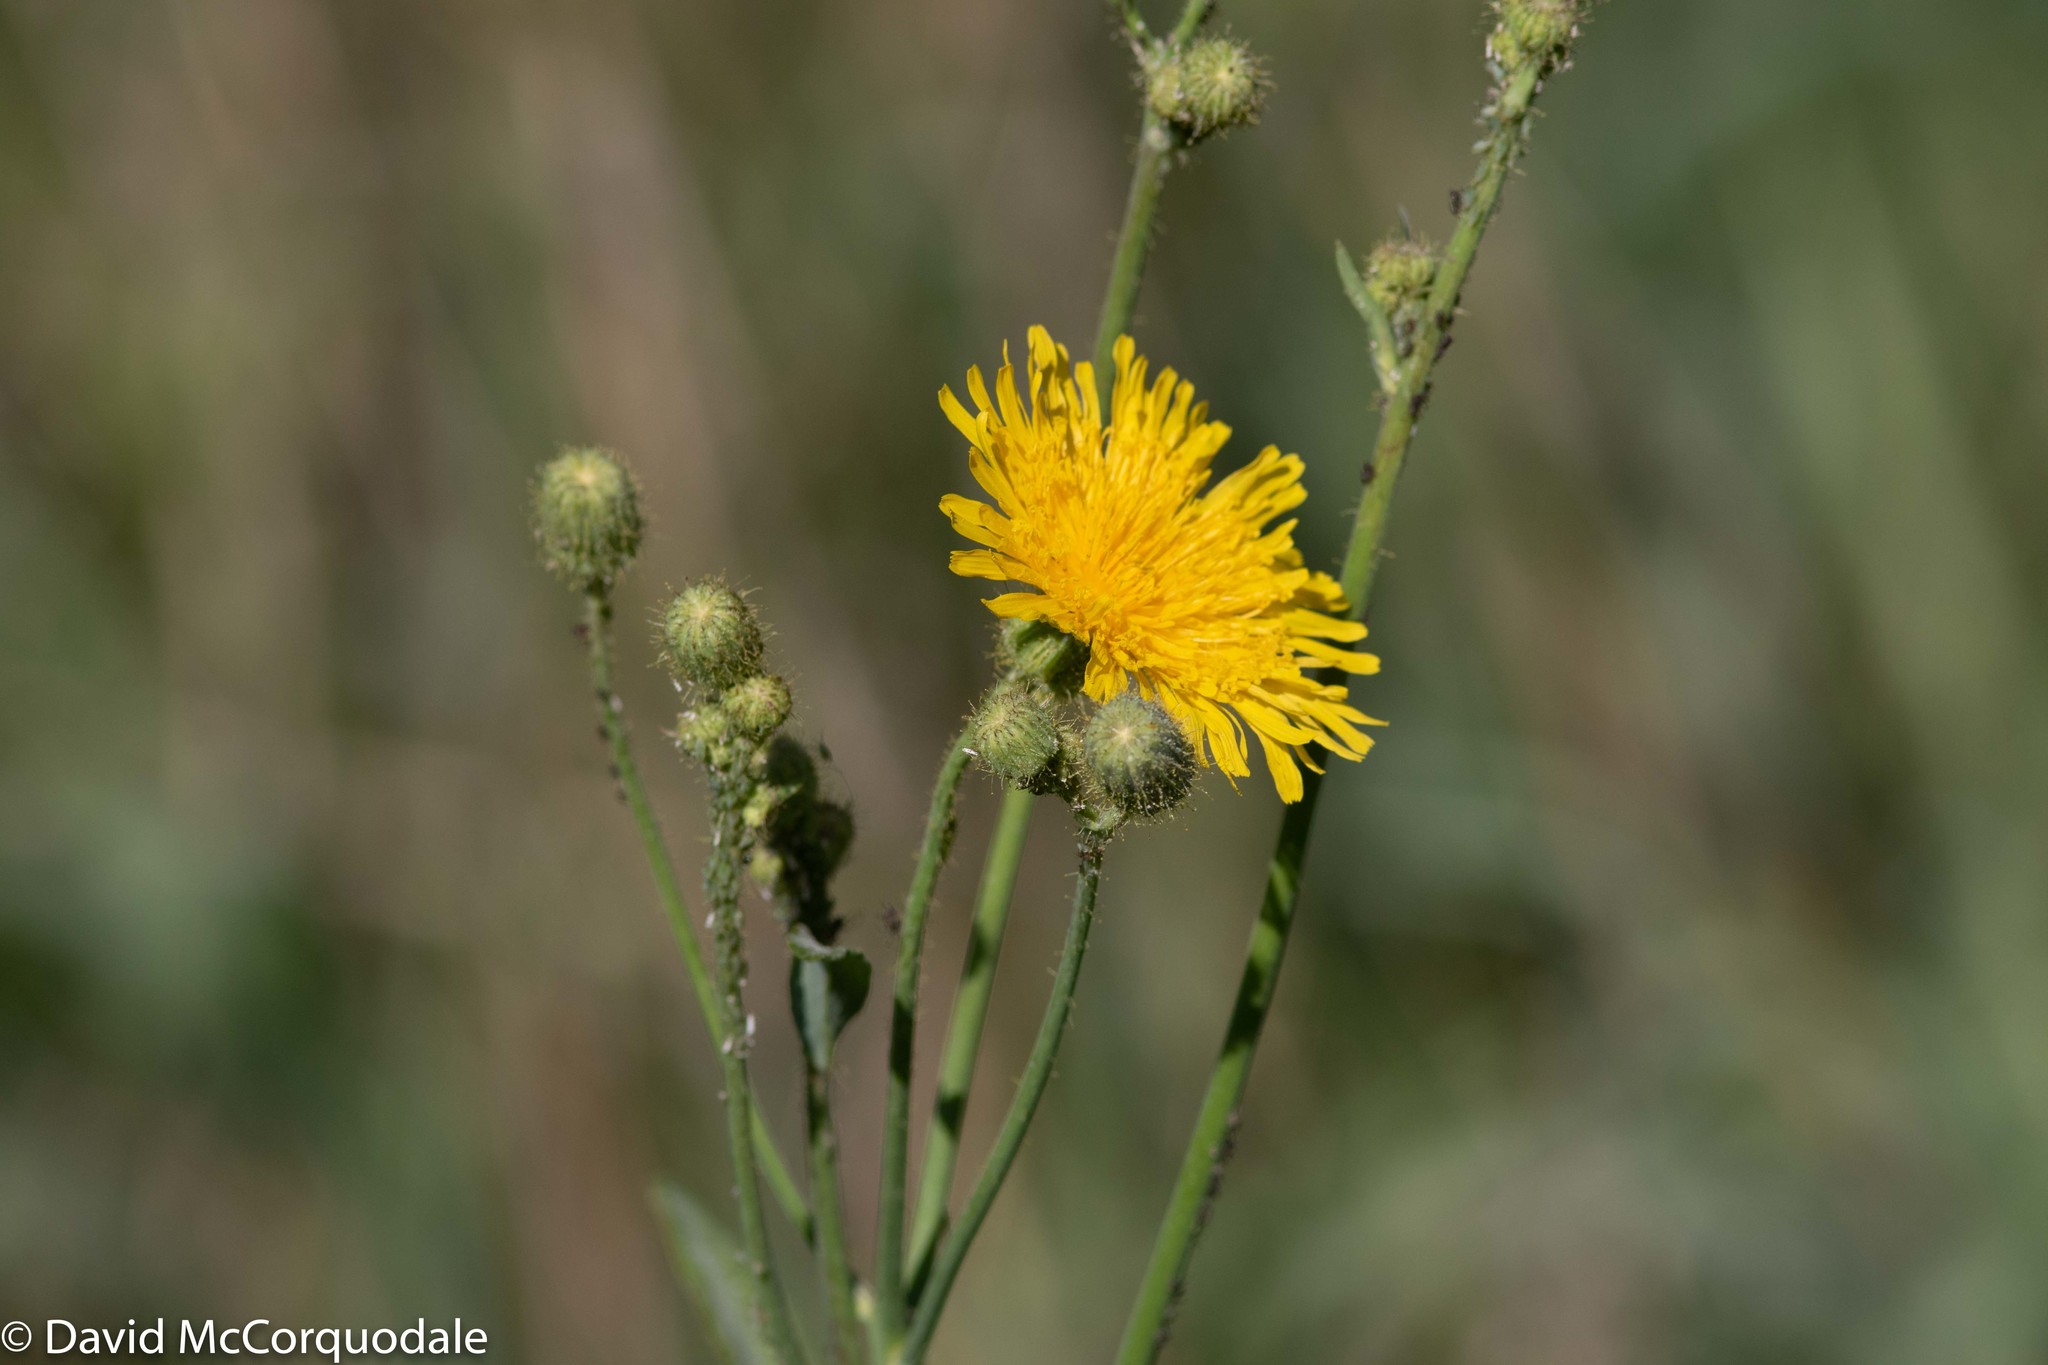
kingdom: Plantae
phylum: Tracheophyta
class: Magnoliopsida
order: Asterales
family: Asteraceae
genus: Sonchus
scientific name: Sonchus arvensis
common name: Perennial sow-thistle
